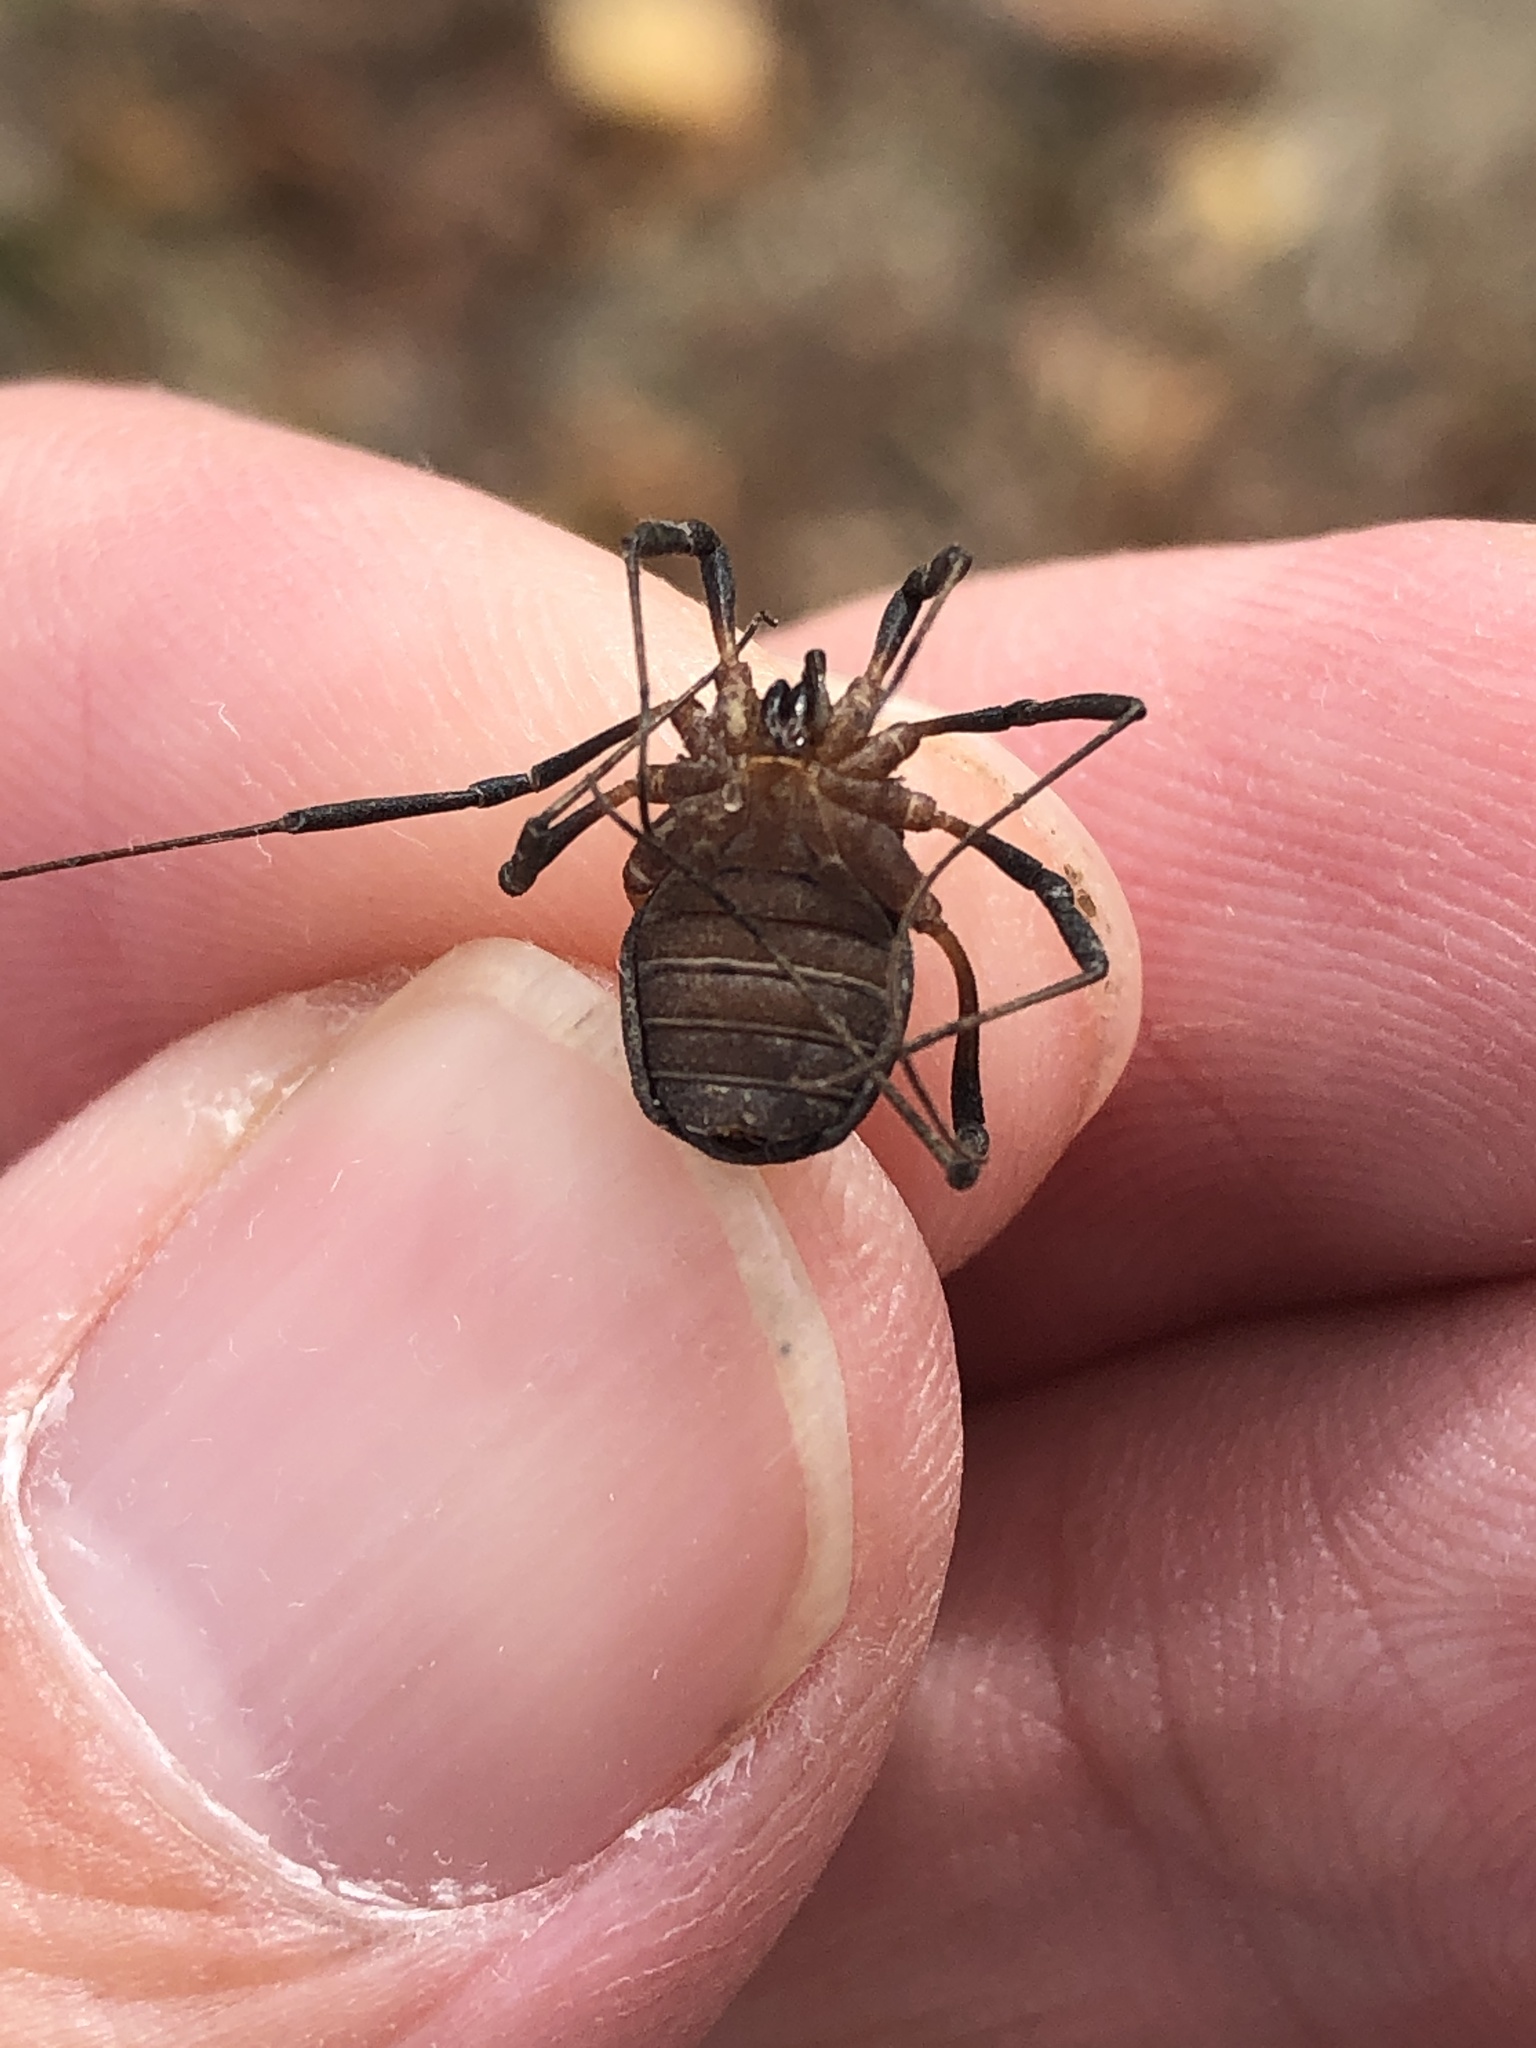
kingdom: Animalia
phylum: Arthropoda
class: Arachnida
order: Opiliones
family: Sclerosomatidae
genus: Eumesosoma
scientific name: Eumesosoma roeweri
